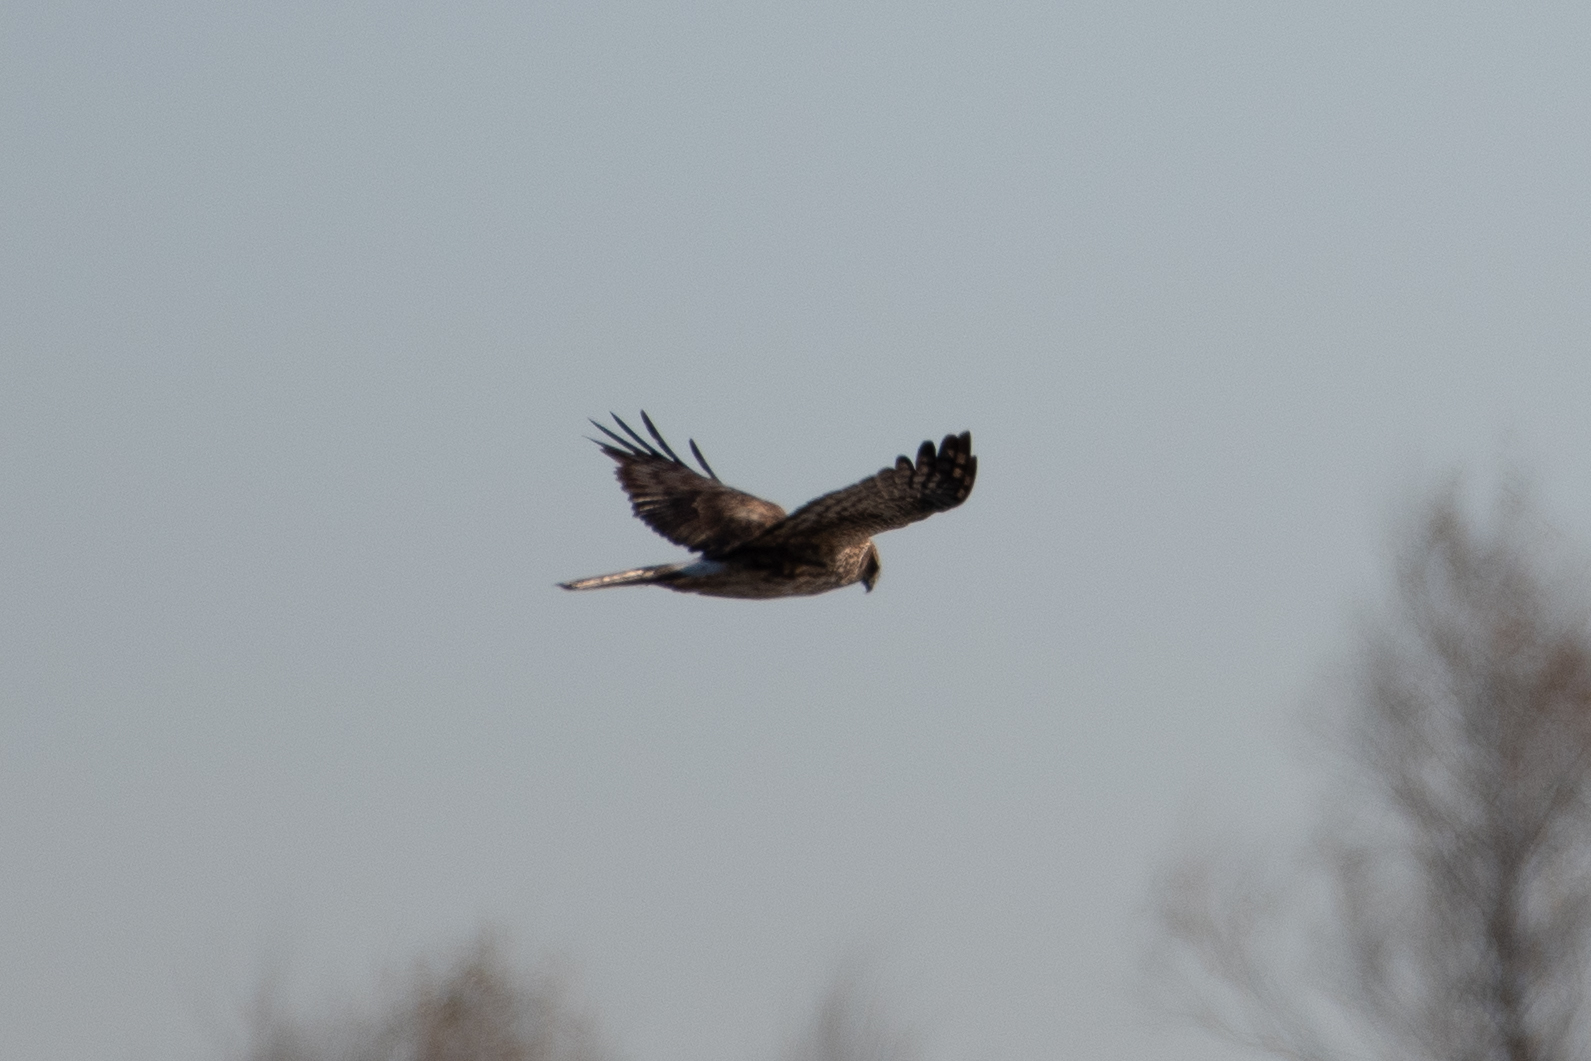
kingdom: Animalia
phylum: Chordata
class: Aves
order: Accipitriformes
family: Accipitridae
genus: Circus
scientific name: Circus cyaneus
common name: Hen harrier
